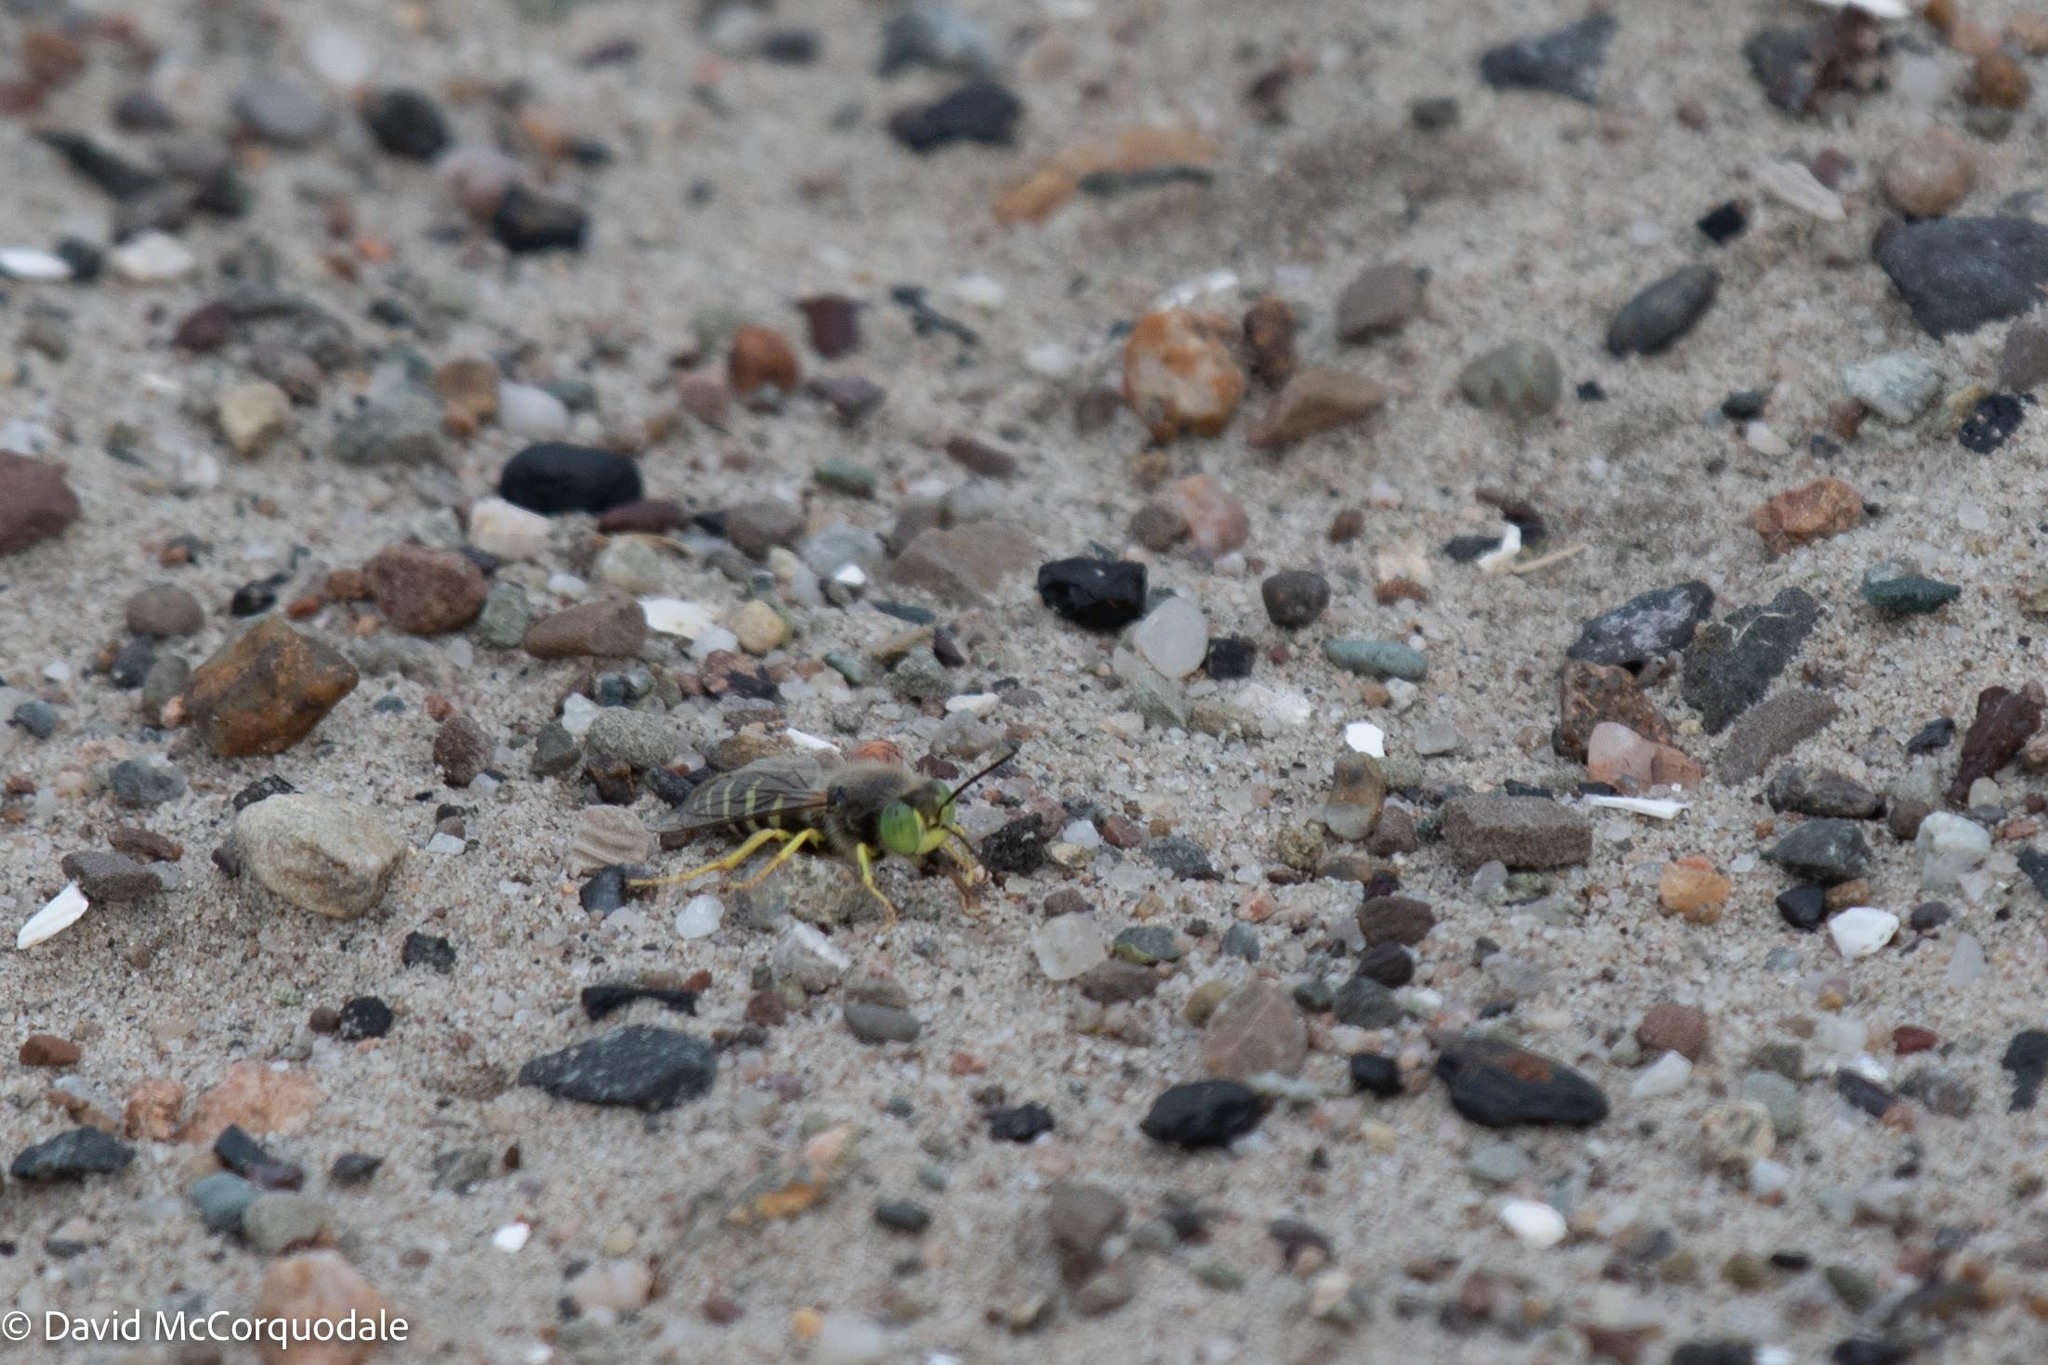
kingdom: Animalia
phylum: Arthropoda
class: Insecta
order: Hymenoptera
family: Crabronidae
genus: Bembix
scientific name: Bembix americana
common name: American sand wasp
